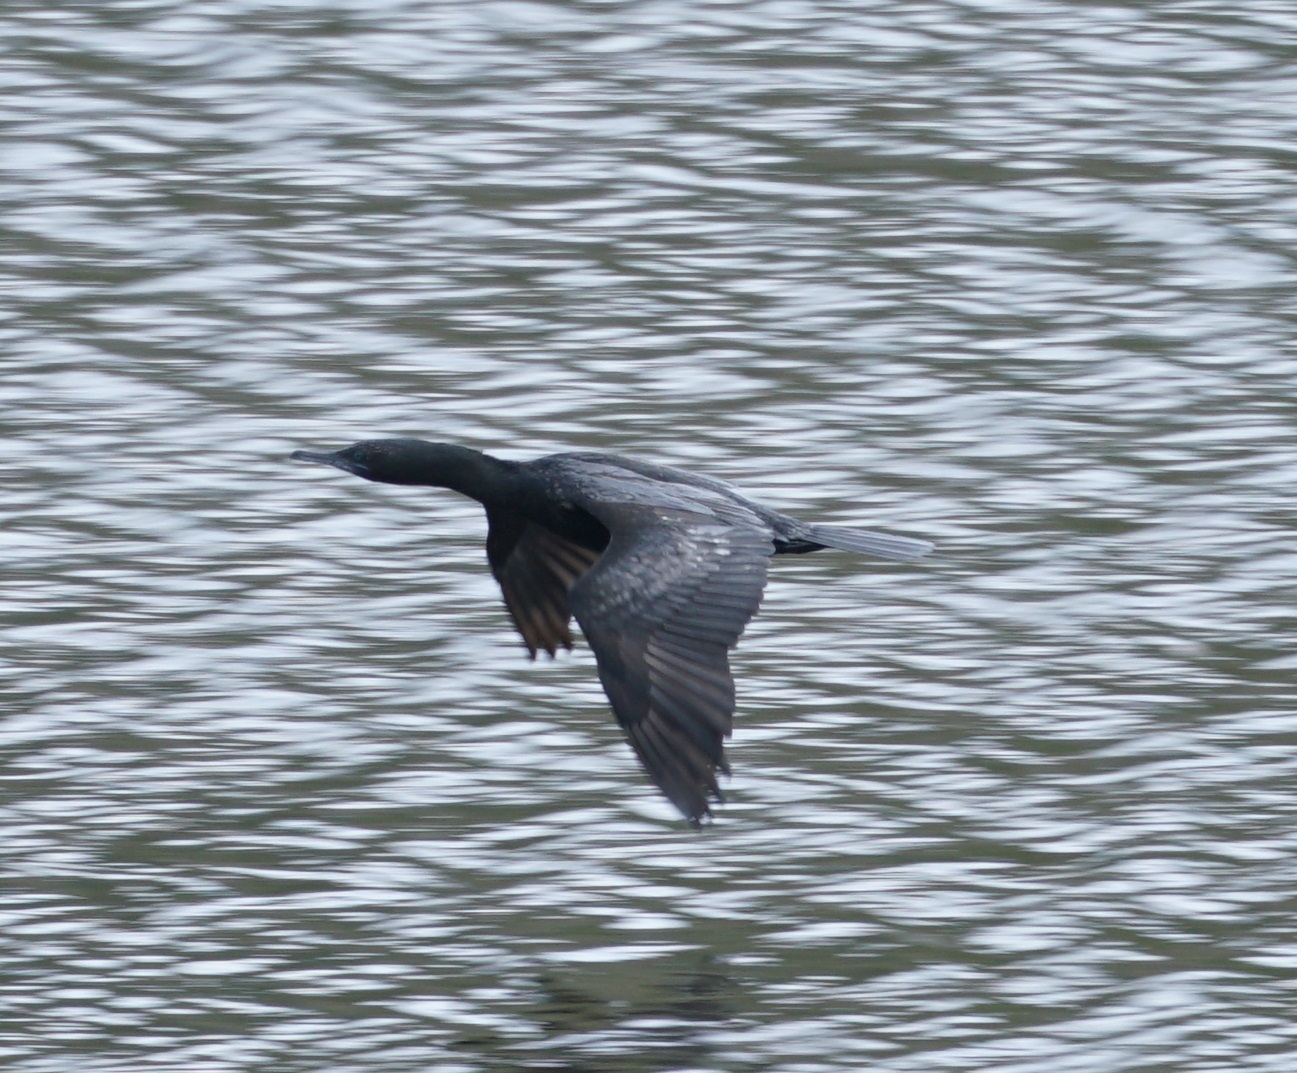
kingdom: Animalia
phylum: Chordata
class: Aves
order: Suliformes
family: Phalacrocoracidae
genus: Phalacrocorax
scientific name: Phalacrocorax sulcirostris
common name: Little black cormorant
